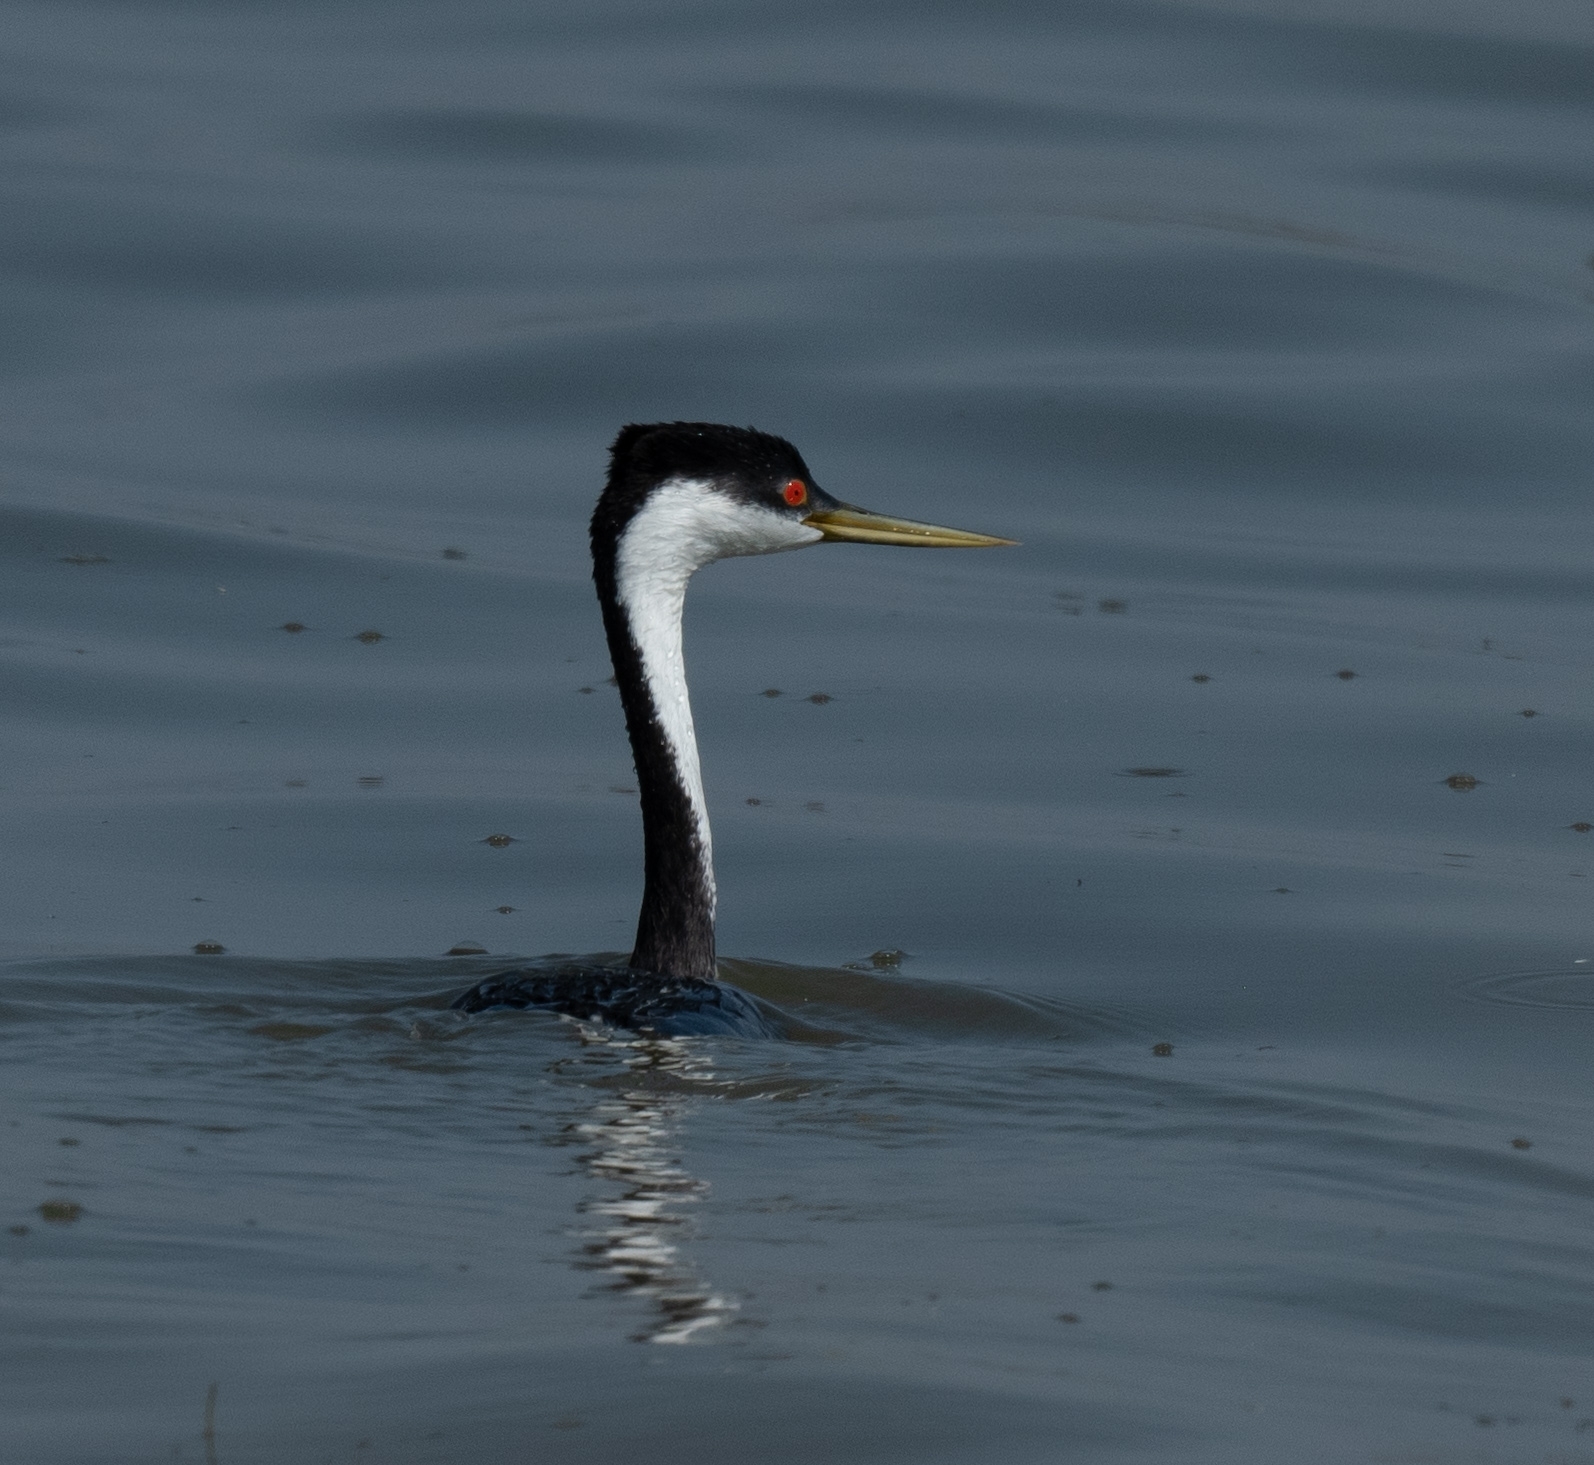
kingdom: Animalia
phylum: Chordata
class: Aves
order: Podicipediformes
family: Podicipedidae
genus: Aechmophorus
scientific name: Aechmophorus occidentalis
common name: Western grebe
